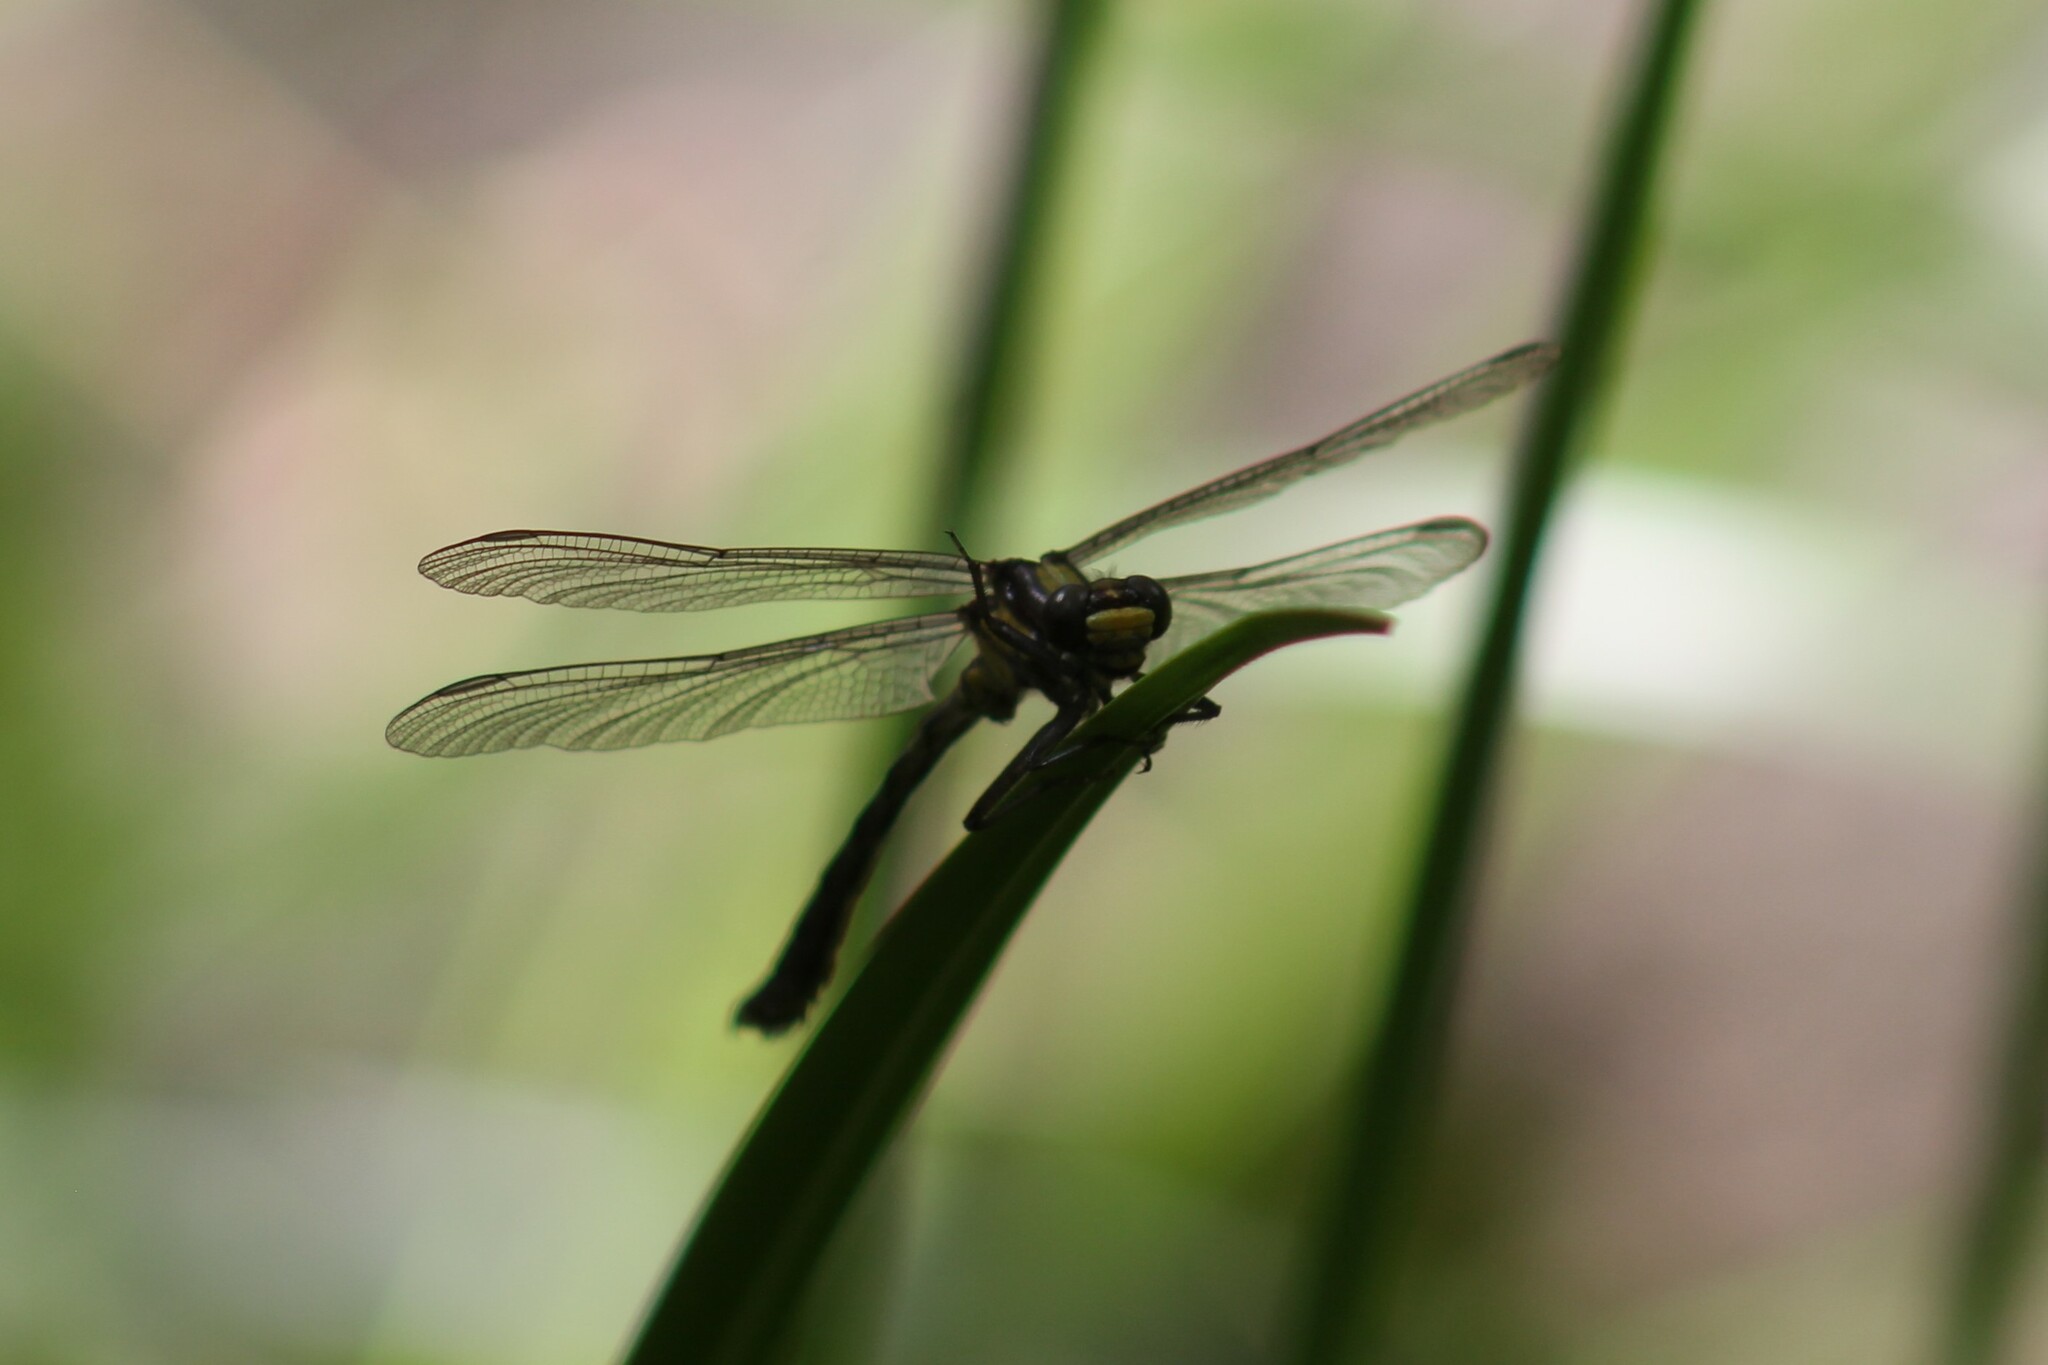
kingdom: Animalia
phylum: Arthropoda
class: Insecta
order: Odonata
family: Gomphidae
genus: Octogomphus
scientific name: Octogomphus specularis
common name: Grappletail
